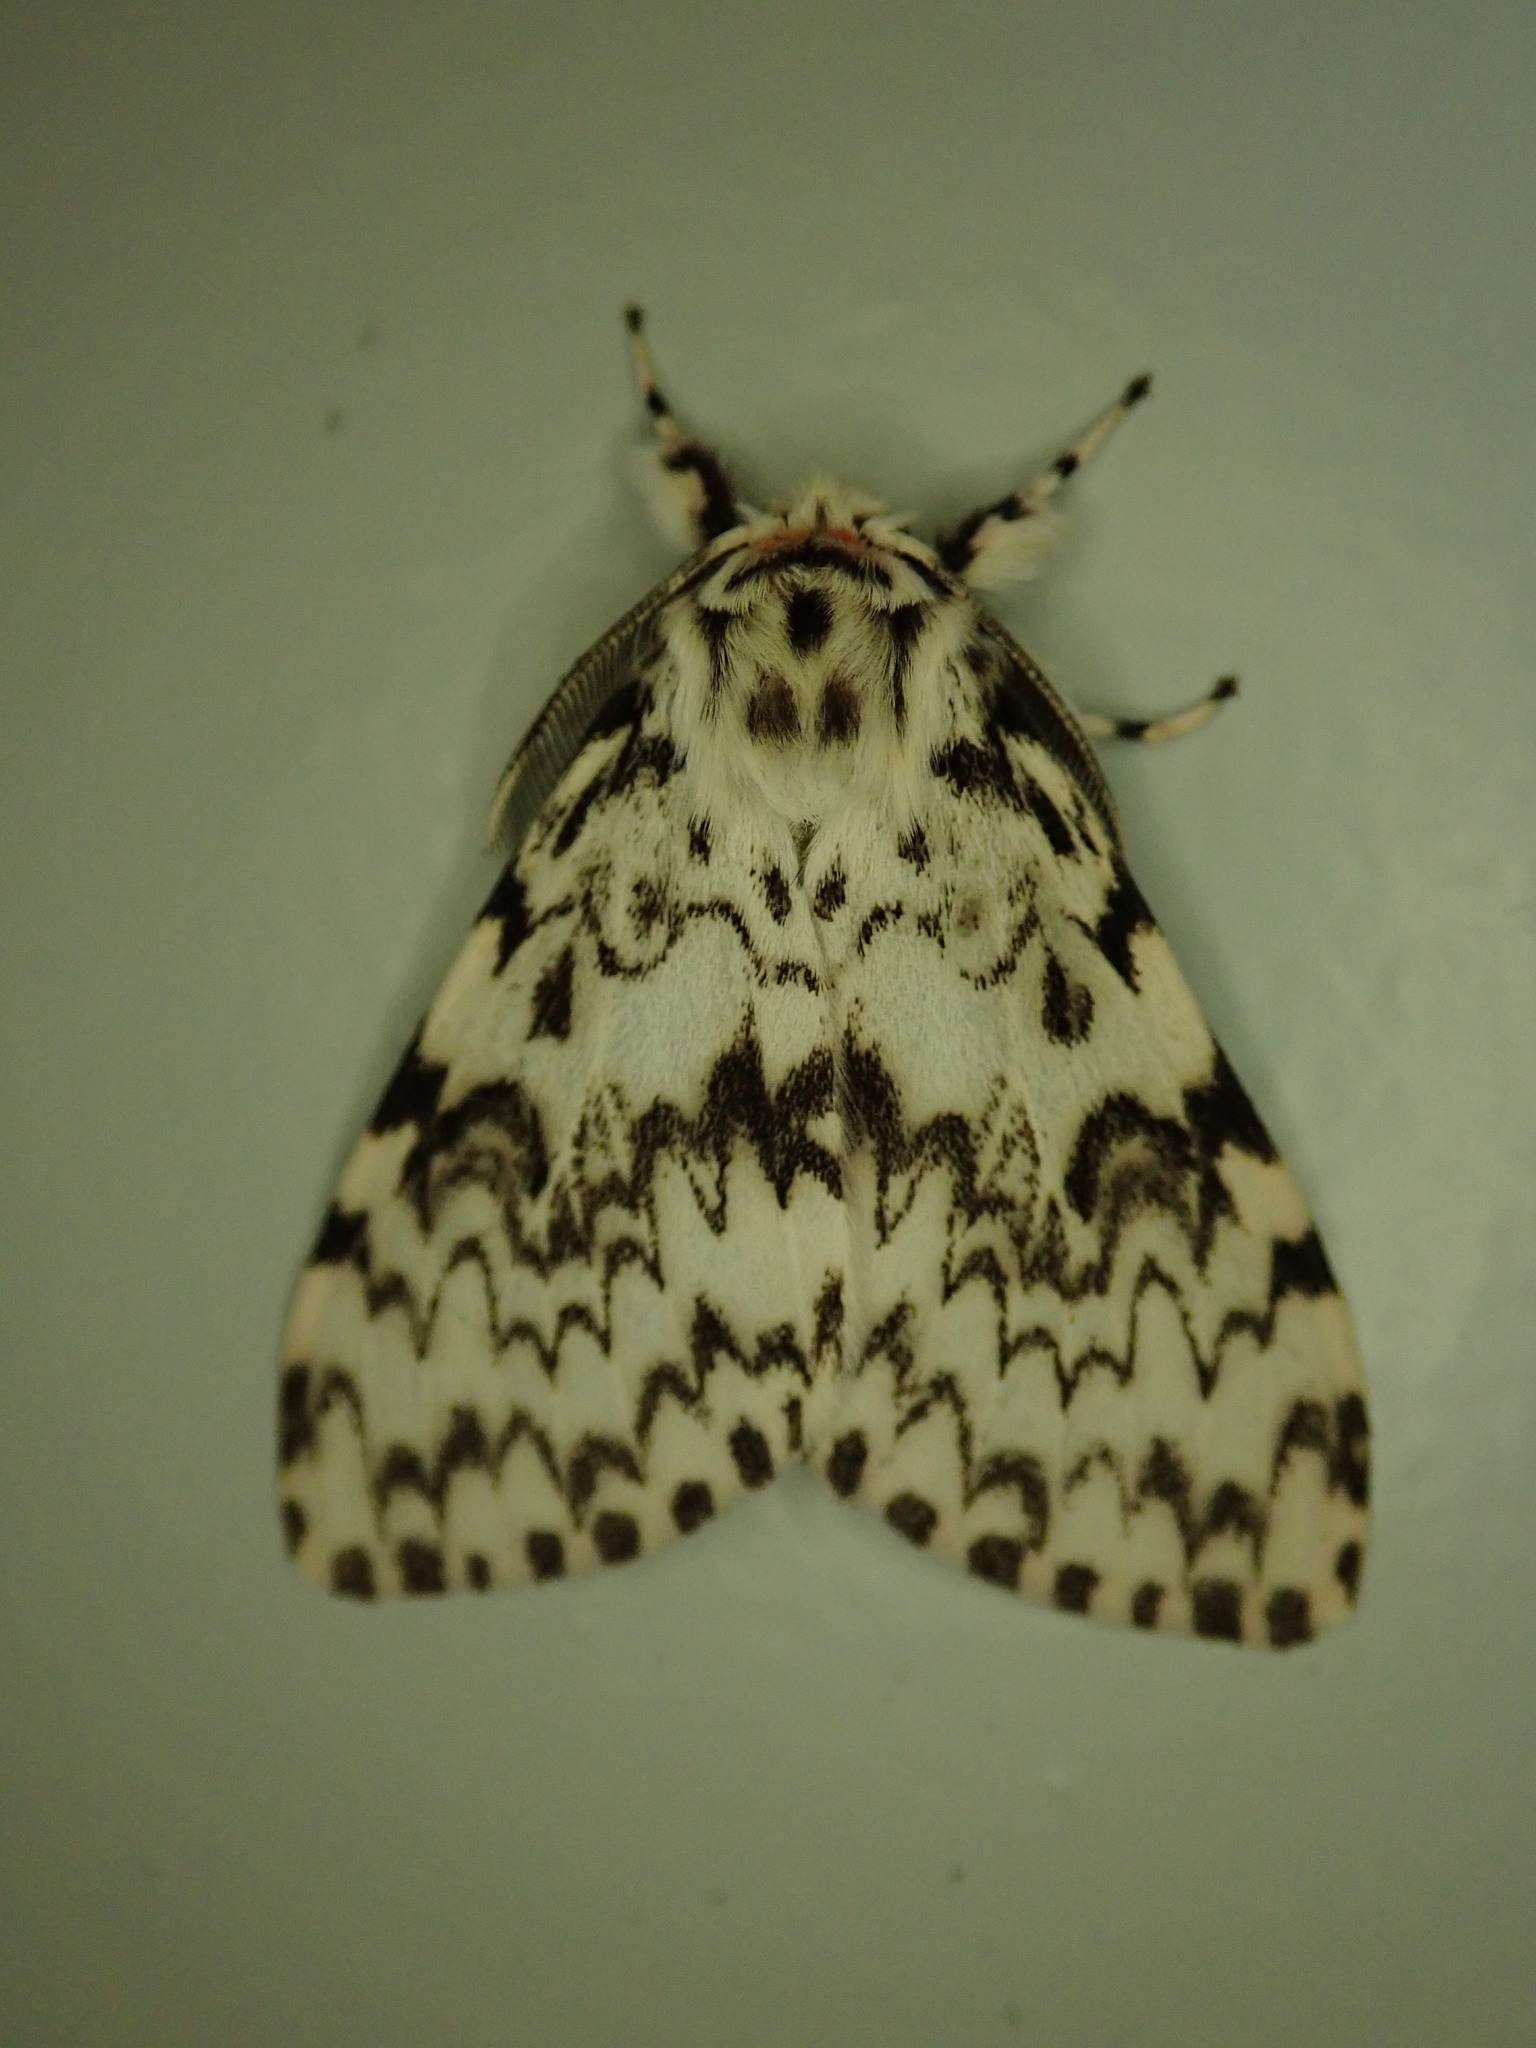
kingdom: Animalia
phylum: Arthropoda
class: Insecta
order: Lepidoptera
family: Erebidae
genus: Lymantria
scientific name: Lymantria monacha
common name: Black arches
